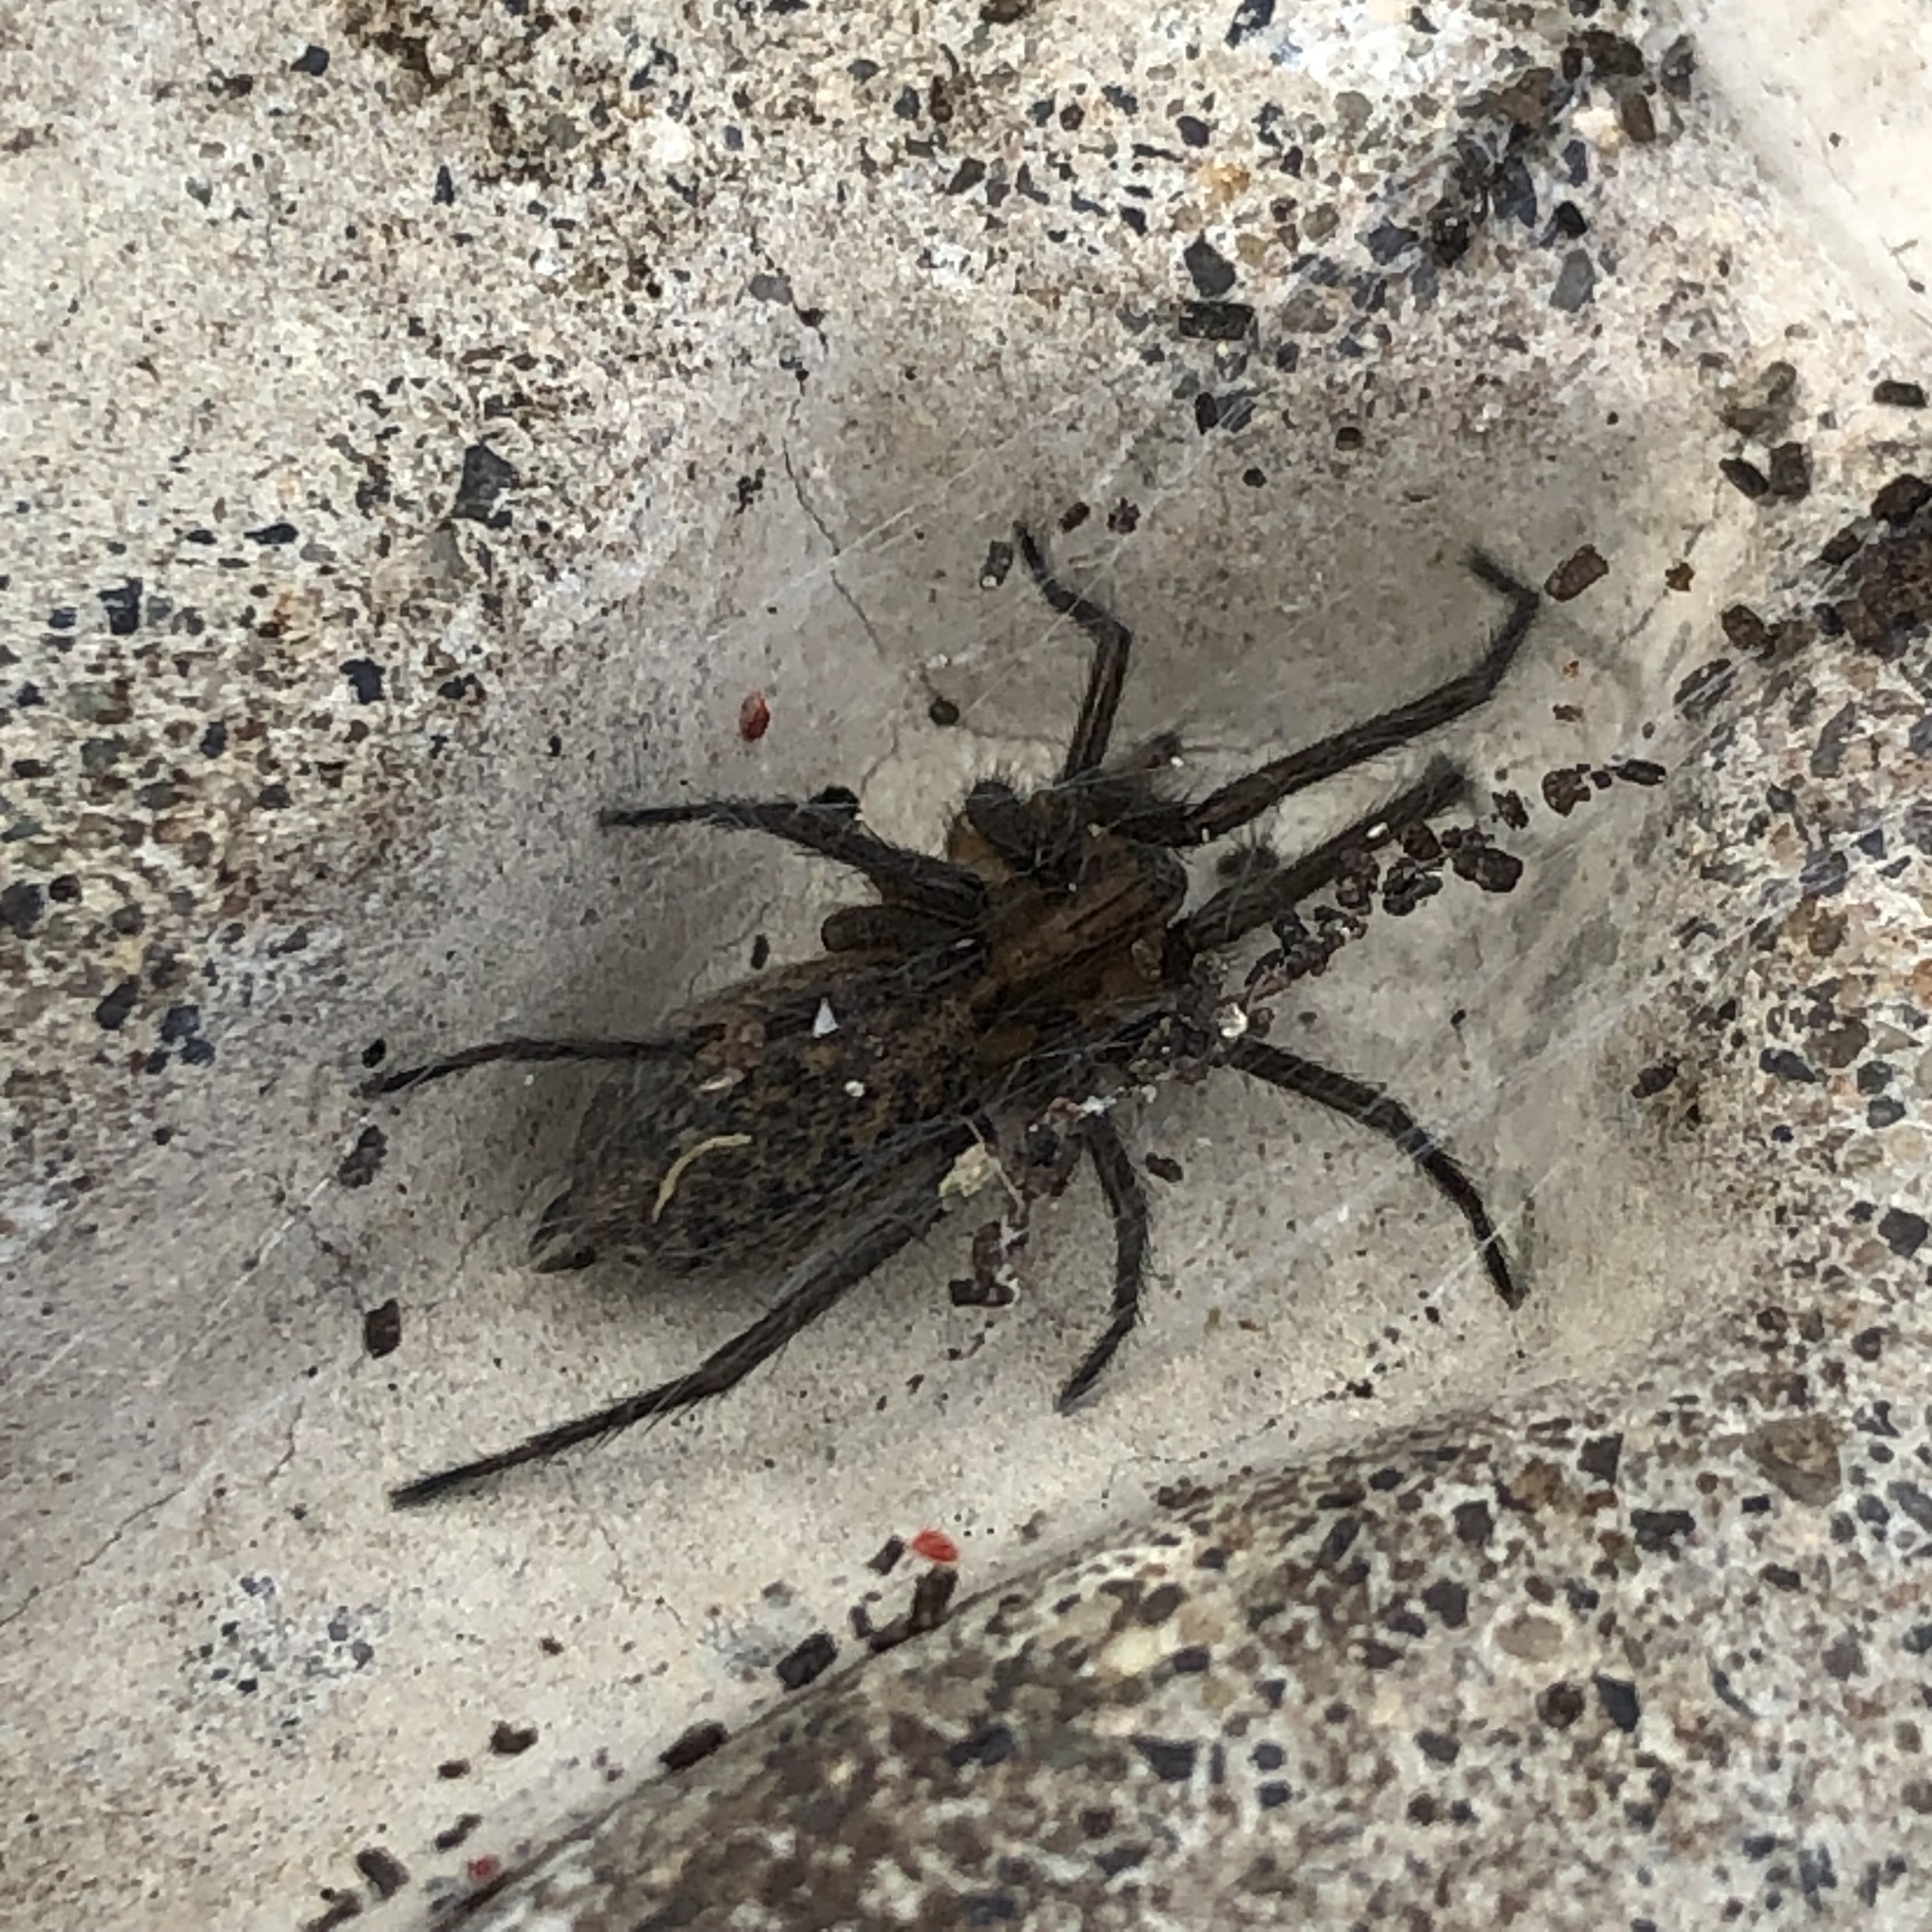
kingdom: Animalia
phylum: Arthropoda
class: Arachnida
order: Araneae
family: Agelenidae
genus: Eratigena
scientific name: Eratigena duellica
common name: Giant house spider
